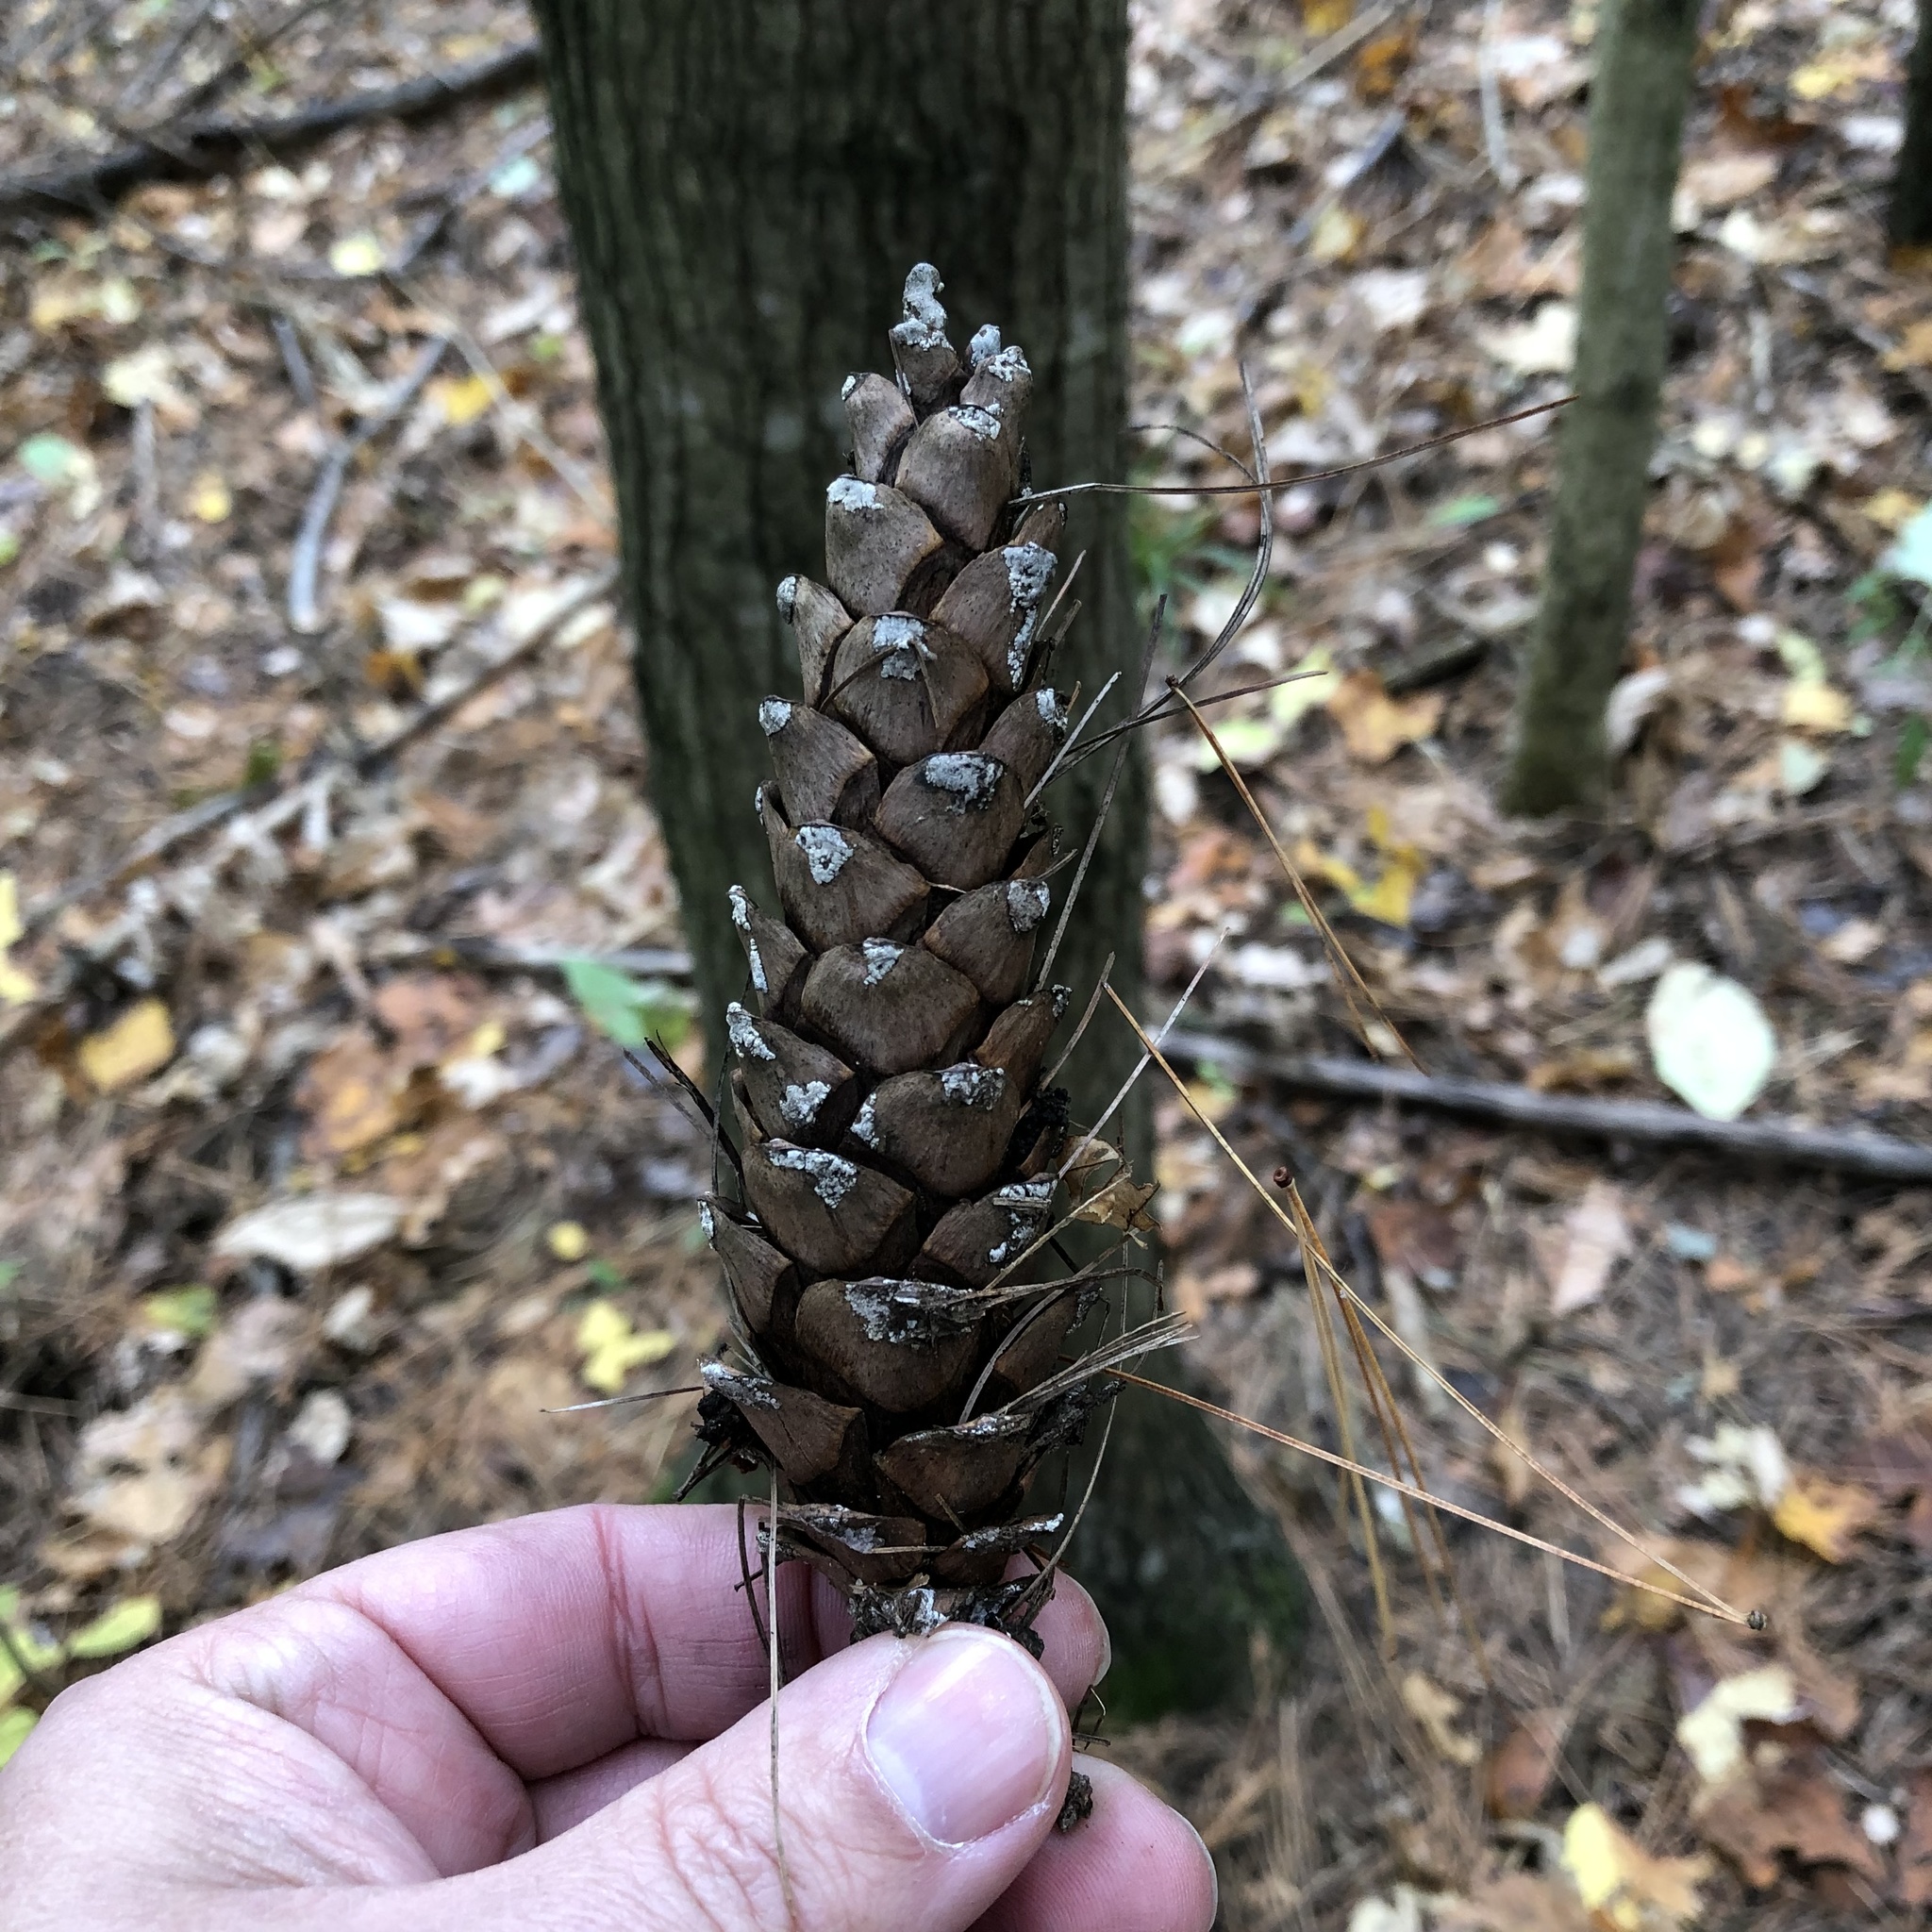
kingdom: Plantae
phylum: Tracheophyta
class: Pinopsida
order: Pinales
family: Pinaceae
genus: Pinus
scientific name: Pinus strobus
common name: Weymouth pine
